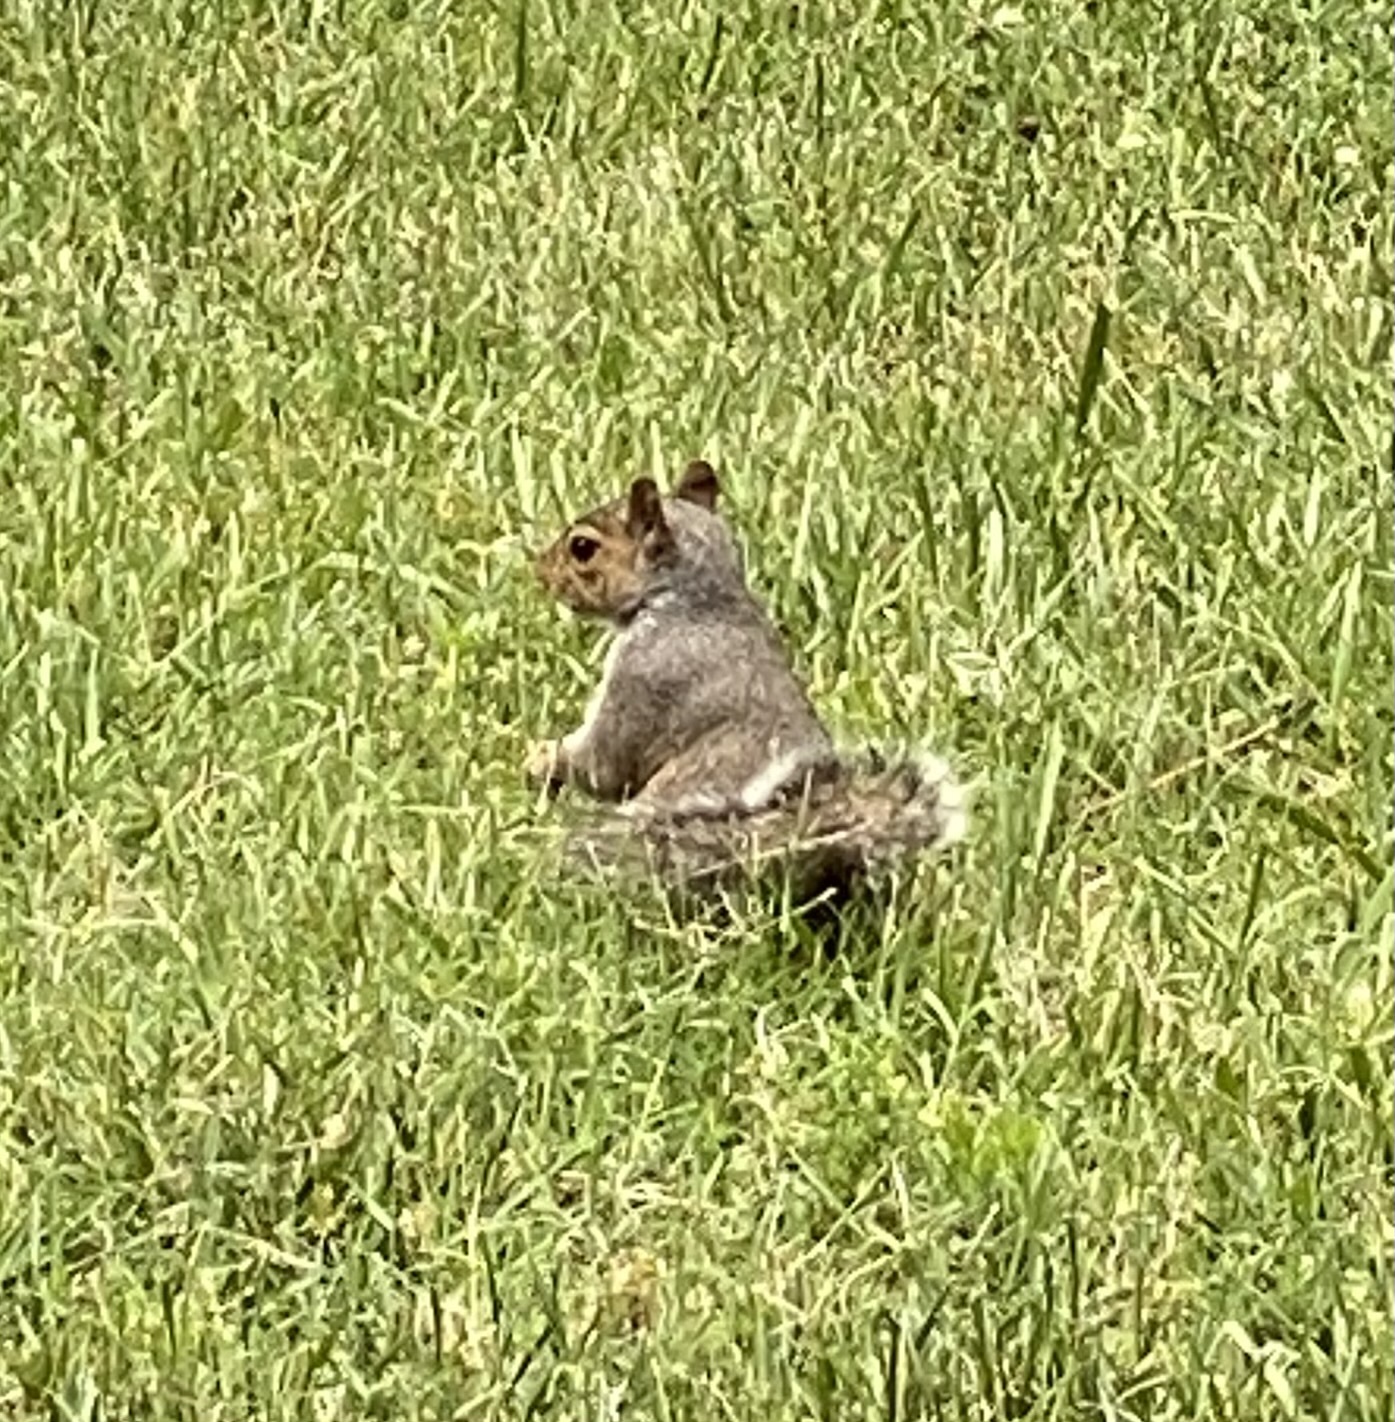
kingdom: Animalia
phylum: Chordata
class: Mammalia
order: Rodentia
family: Sciuridae
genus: Sciurus
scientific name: Sciurus carolinensis
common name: Eastern gray squirrel
